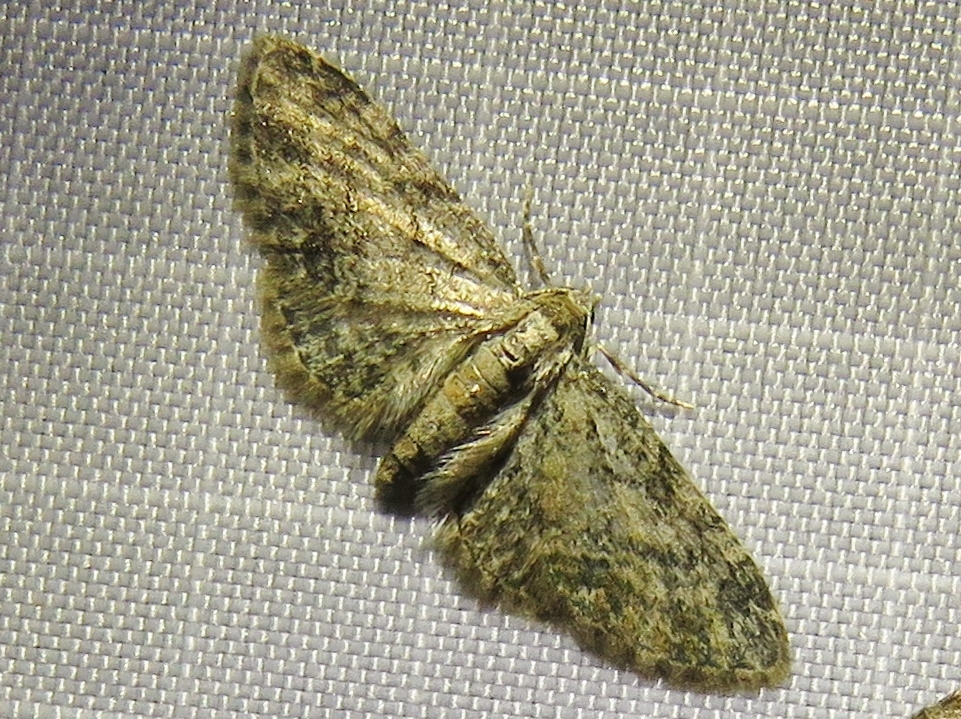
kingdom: Animalia
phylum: Arthropoda
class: Insecta
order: Lepidoptera
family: Geometridae
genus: Eupithecia
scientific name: Eupithecia inturbata
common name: Maple pug
